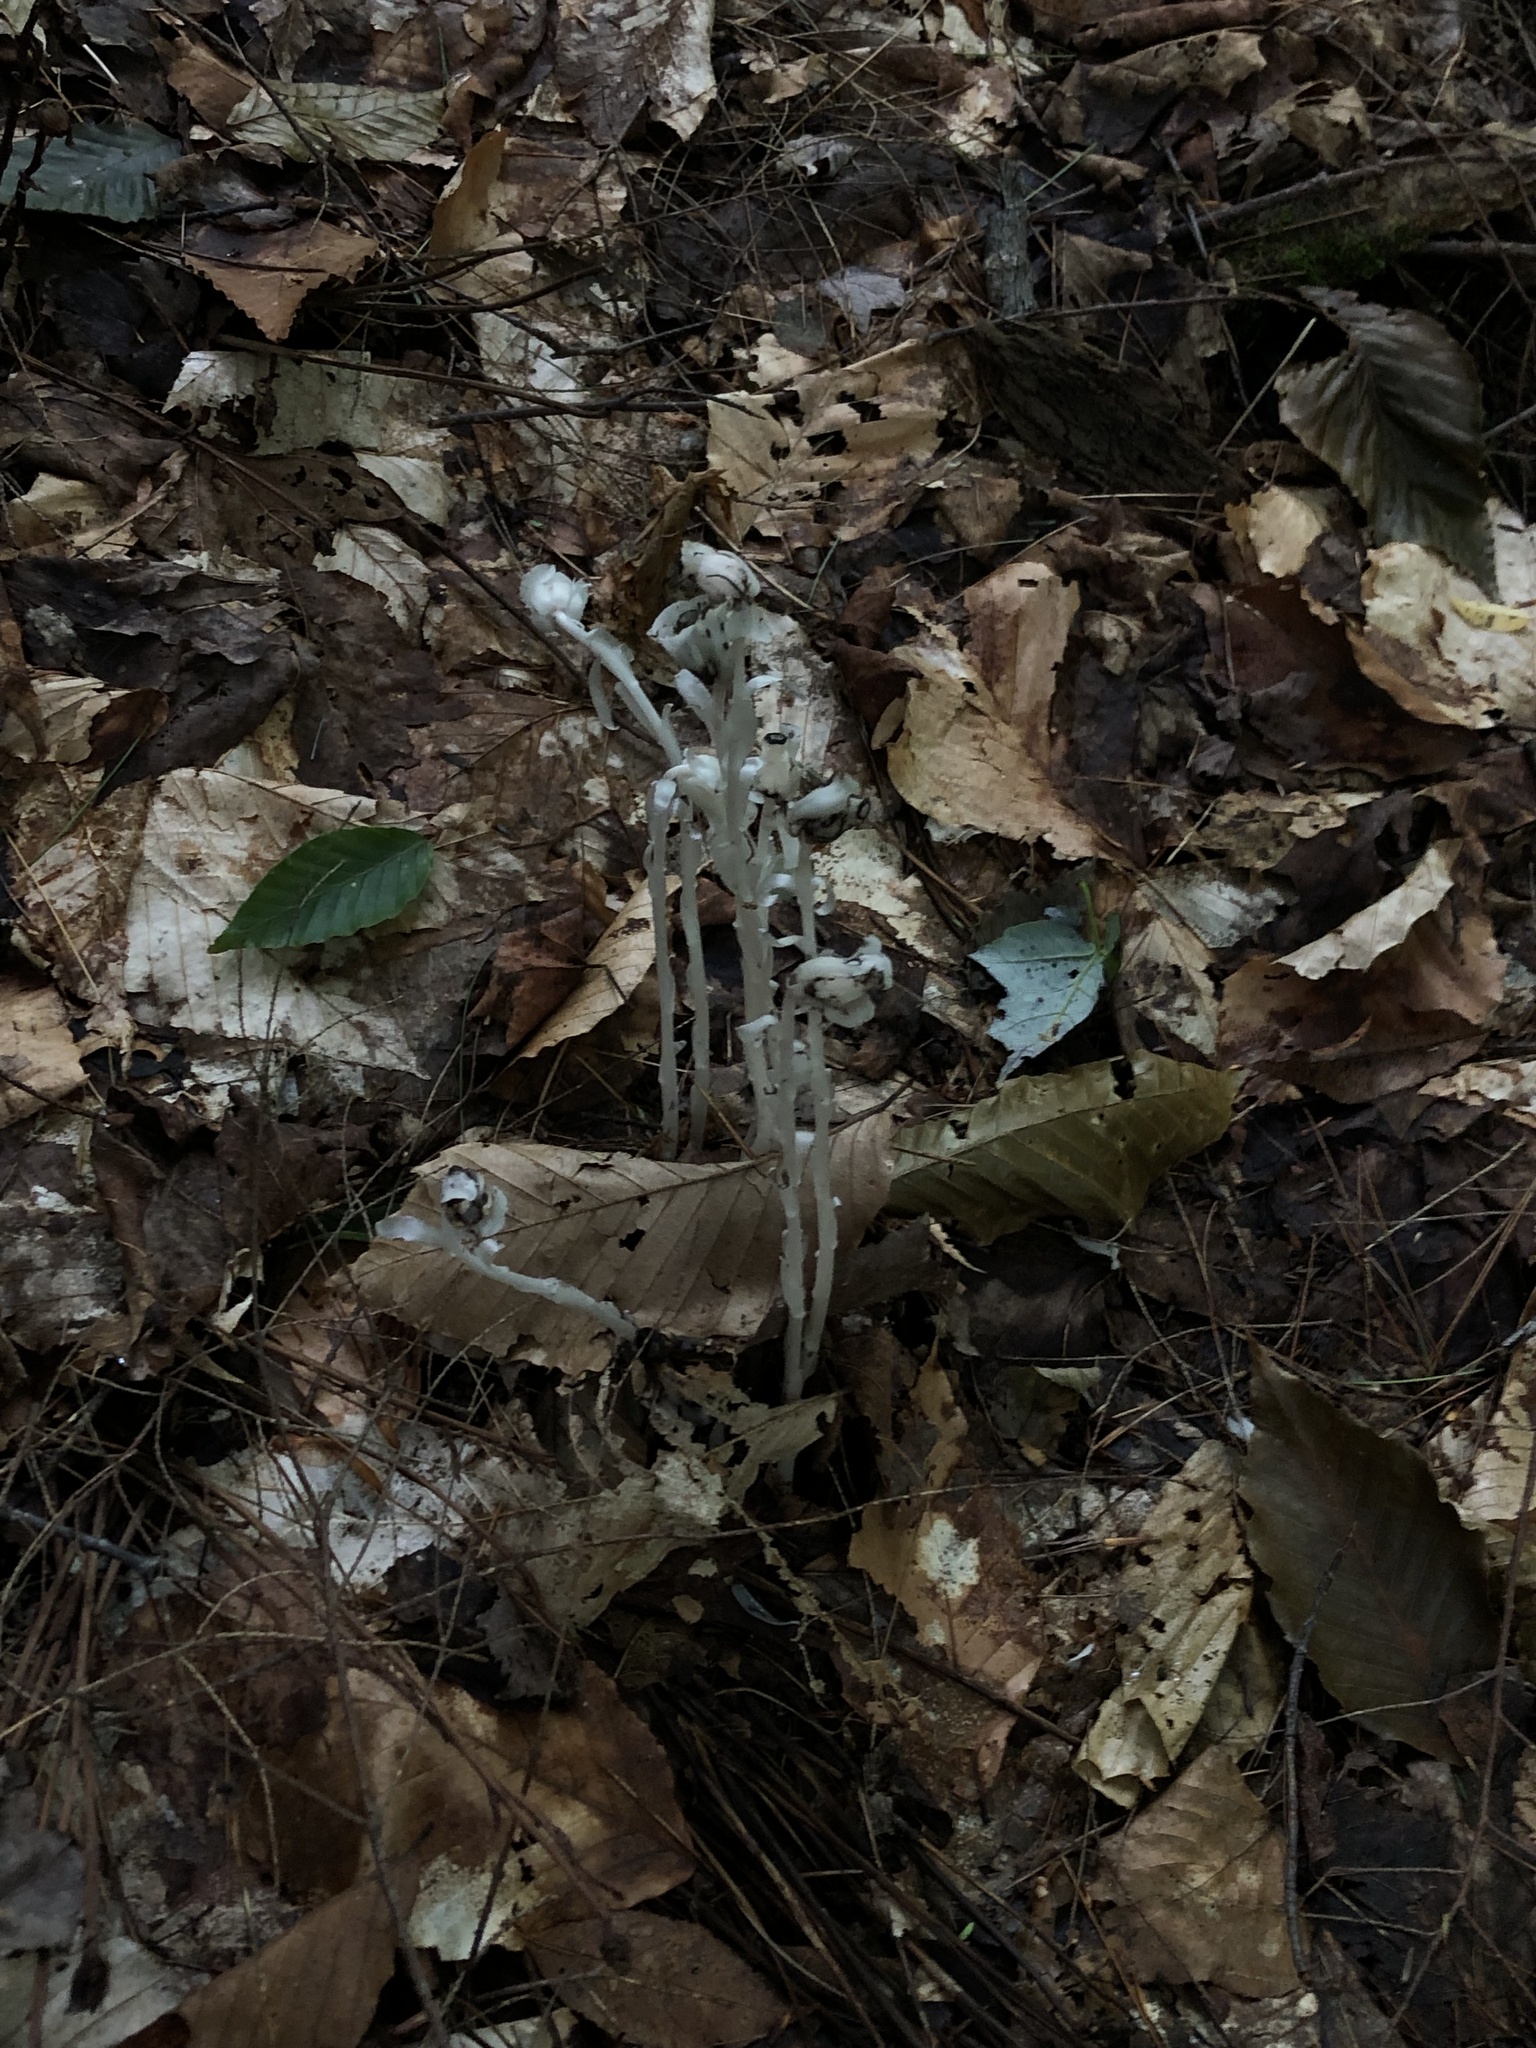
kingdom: Plantae
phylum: Tracheophyta
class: Magnoliopsida
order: Ericales
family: Ericaceae
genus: Monotropa
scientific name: Monotropa uniflora
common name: Convulsion root
